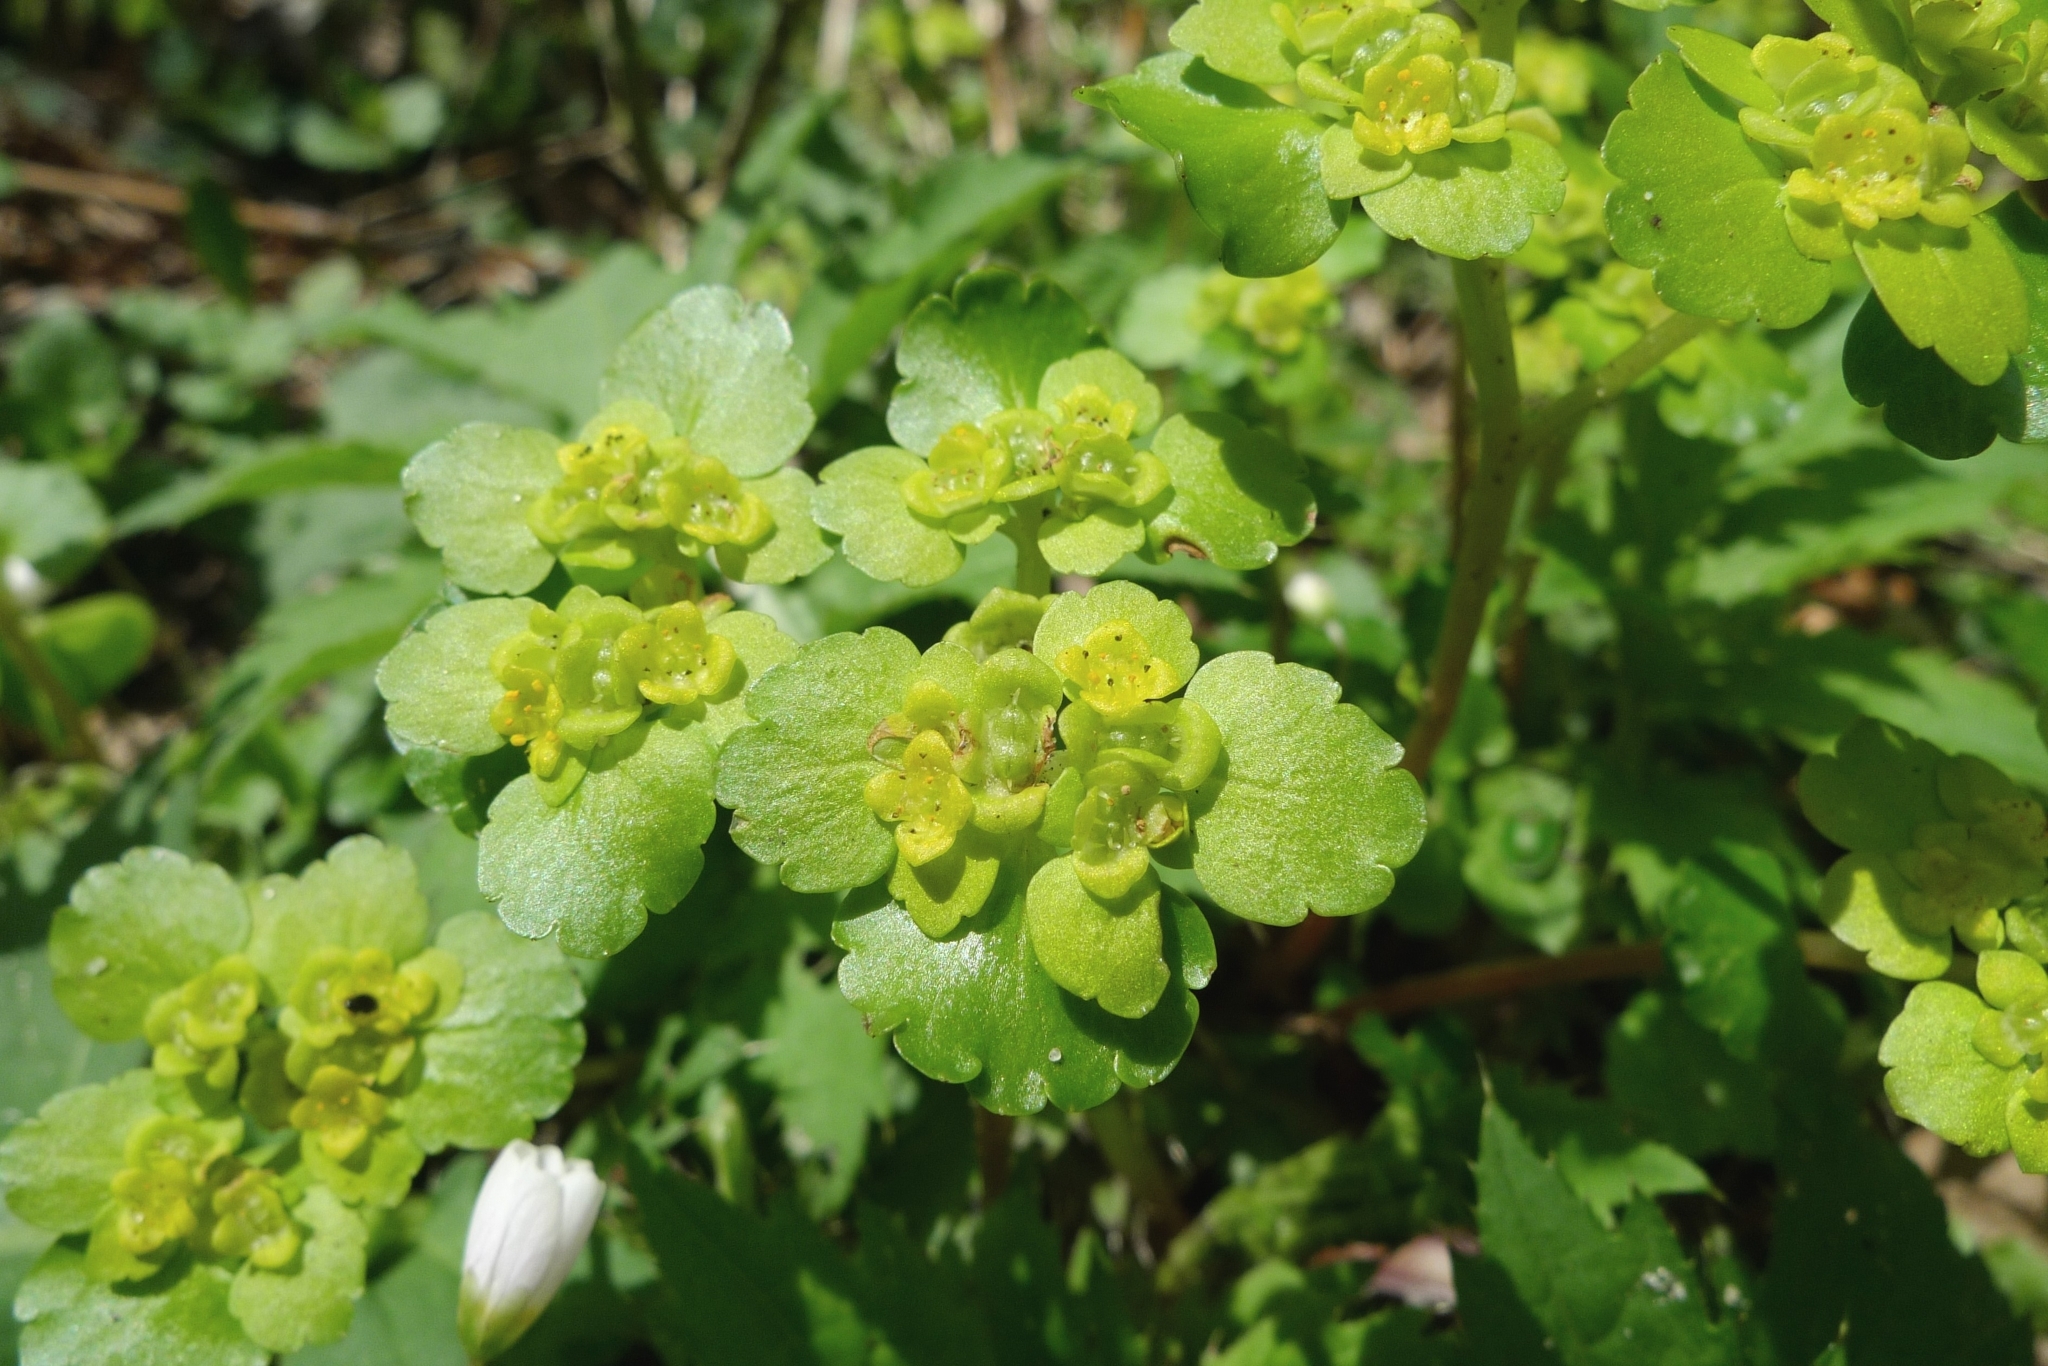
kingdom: Plantae
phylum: Tracheophyta
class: Magnoliopsida
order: Saxifragales
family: Saxifragaceae
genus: Chrysosplenium
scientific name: Chrysosplenium alternifolium
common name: Alternate-leaved golden-saxifrage
